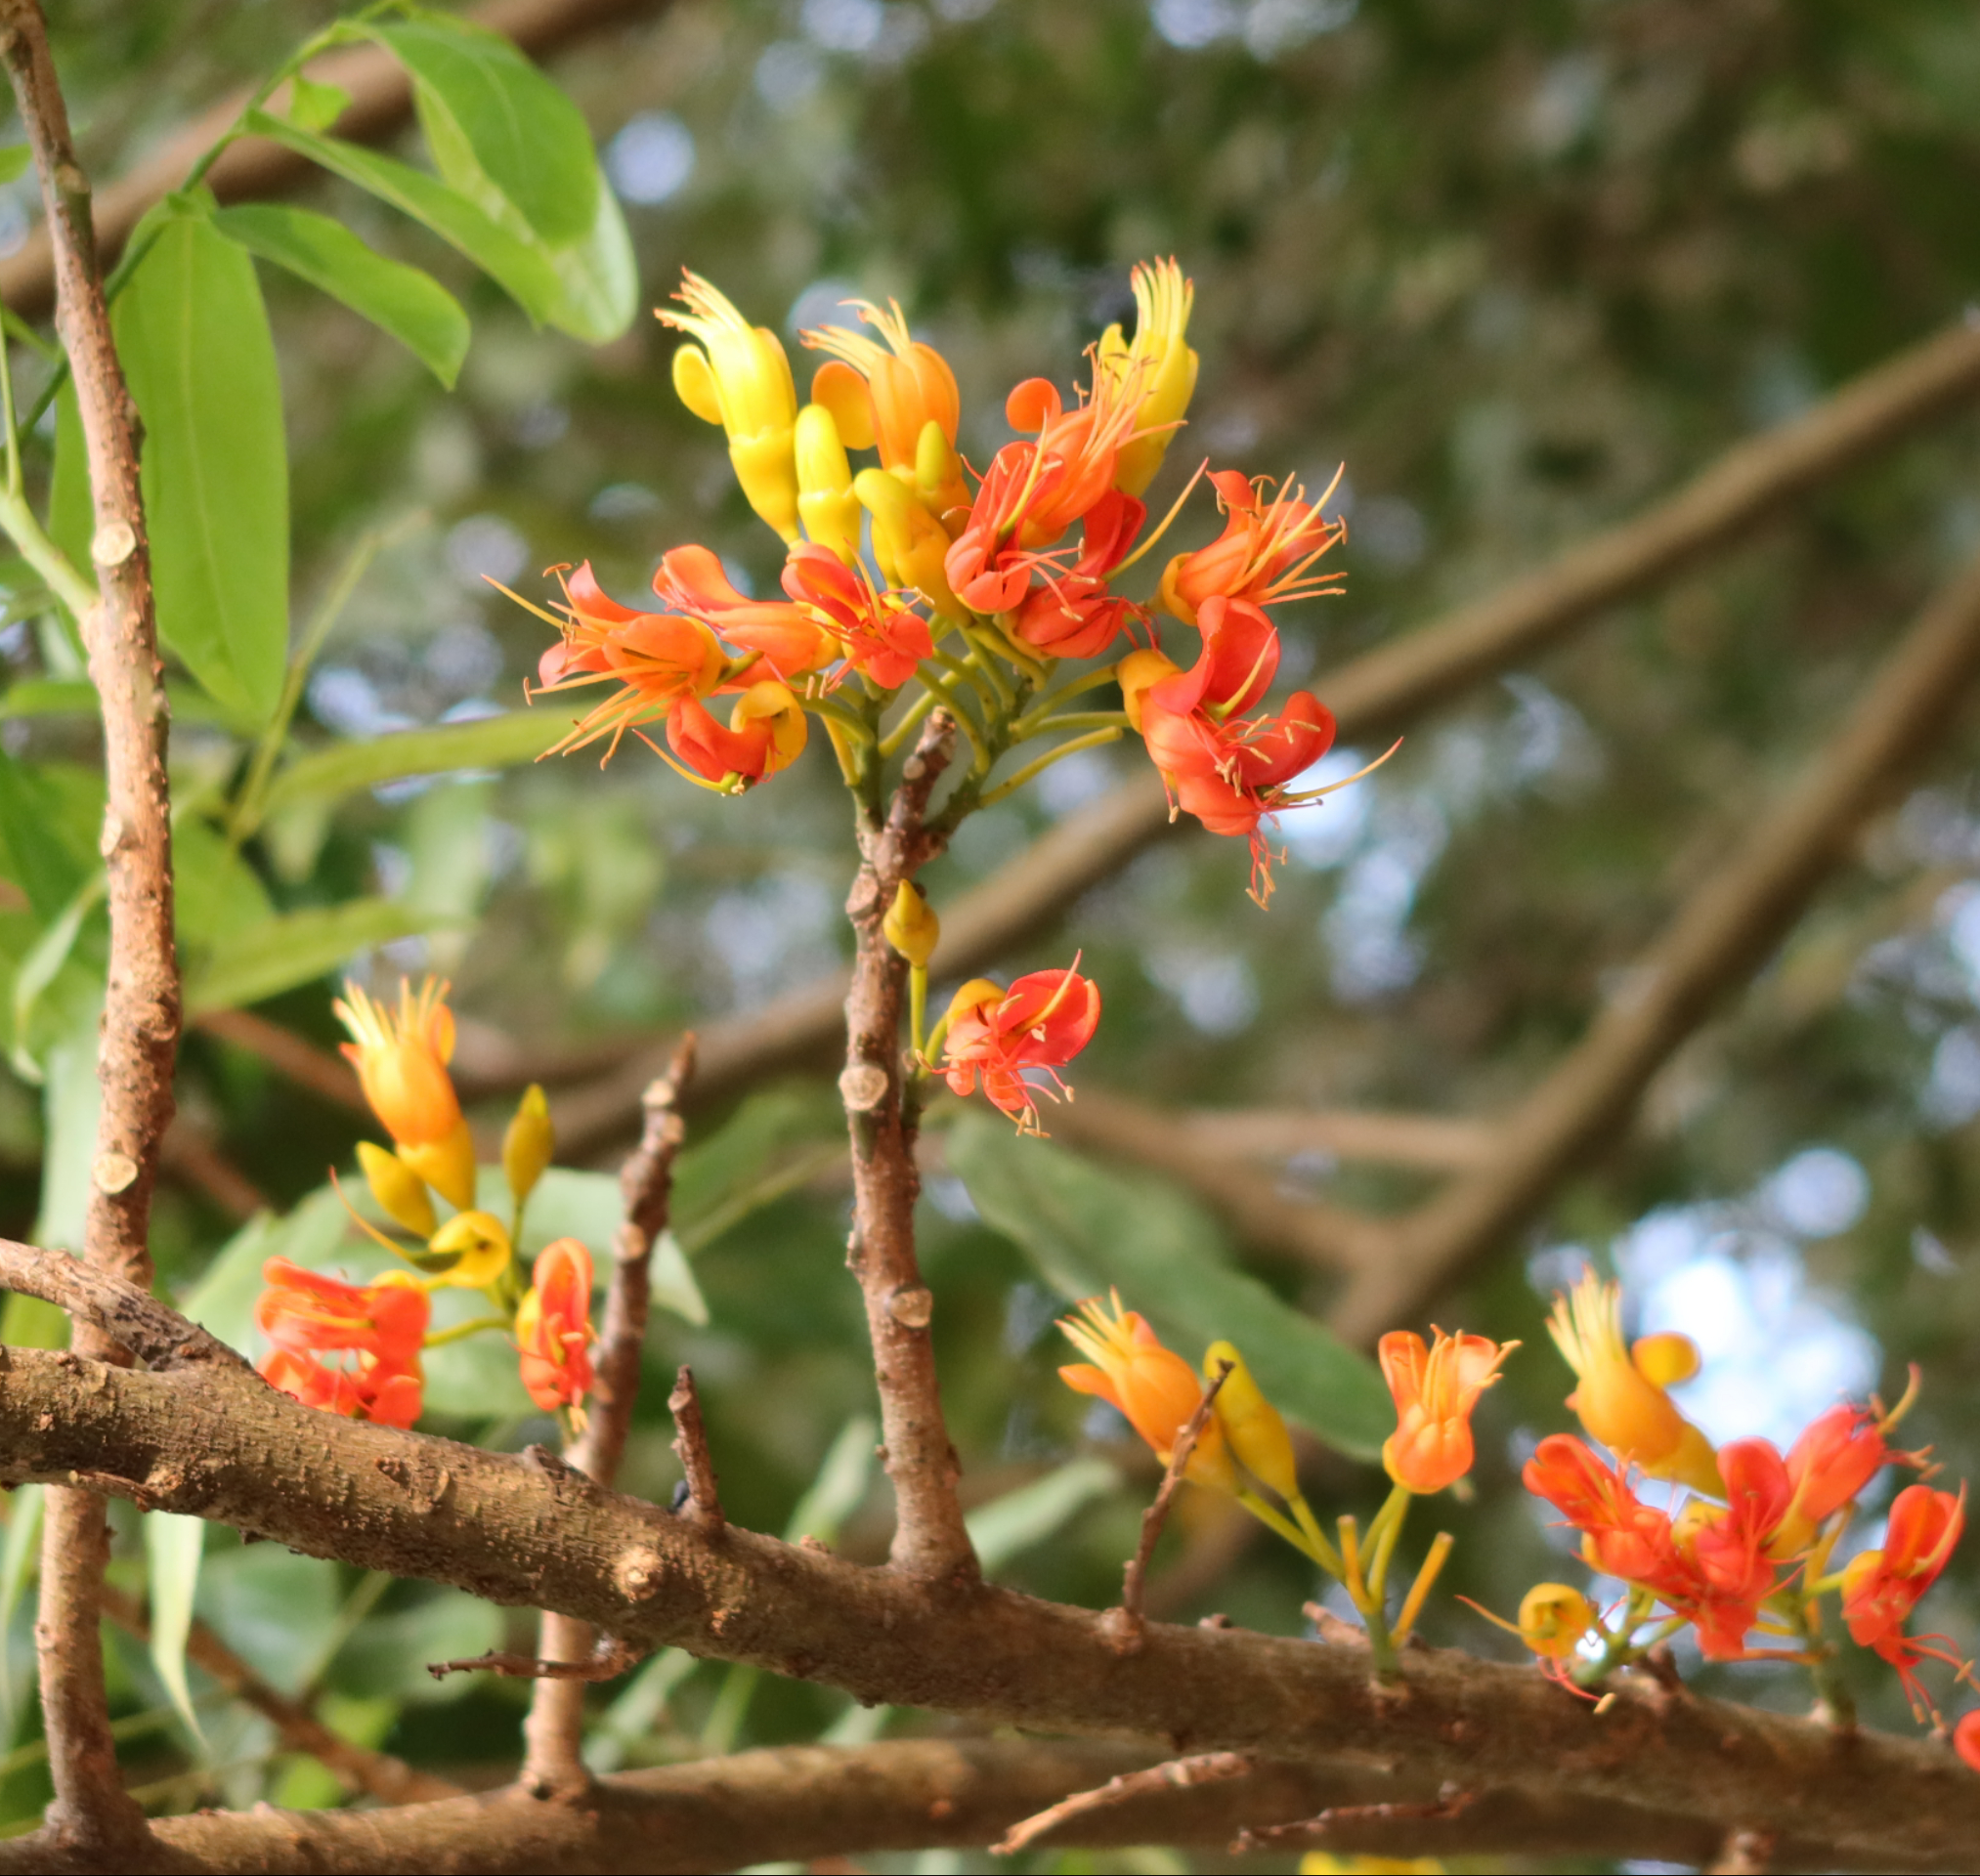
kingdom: Plantae
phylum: Tracheophyta
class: Magnoliopsida
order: Fabales
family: Fabaceae
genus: Castanospermum
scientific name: Castanospermum australe
